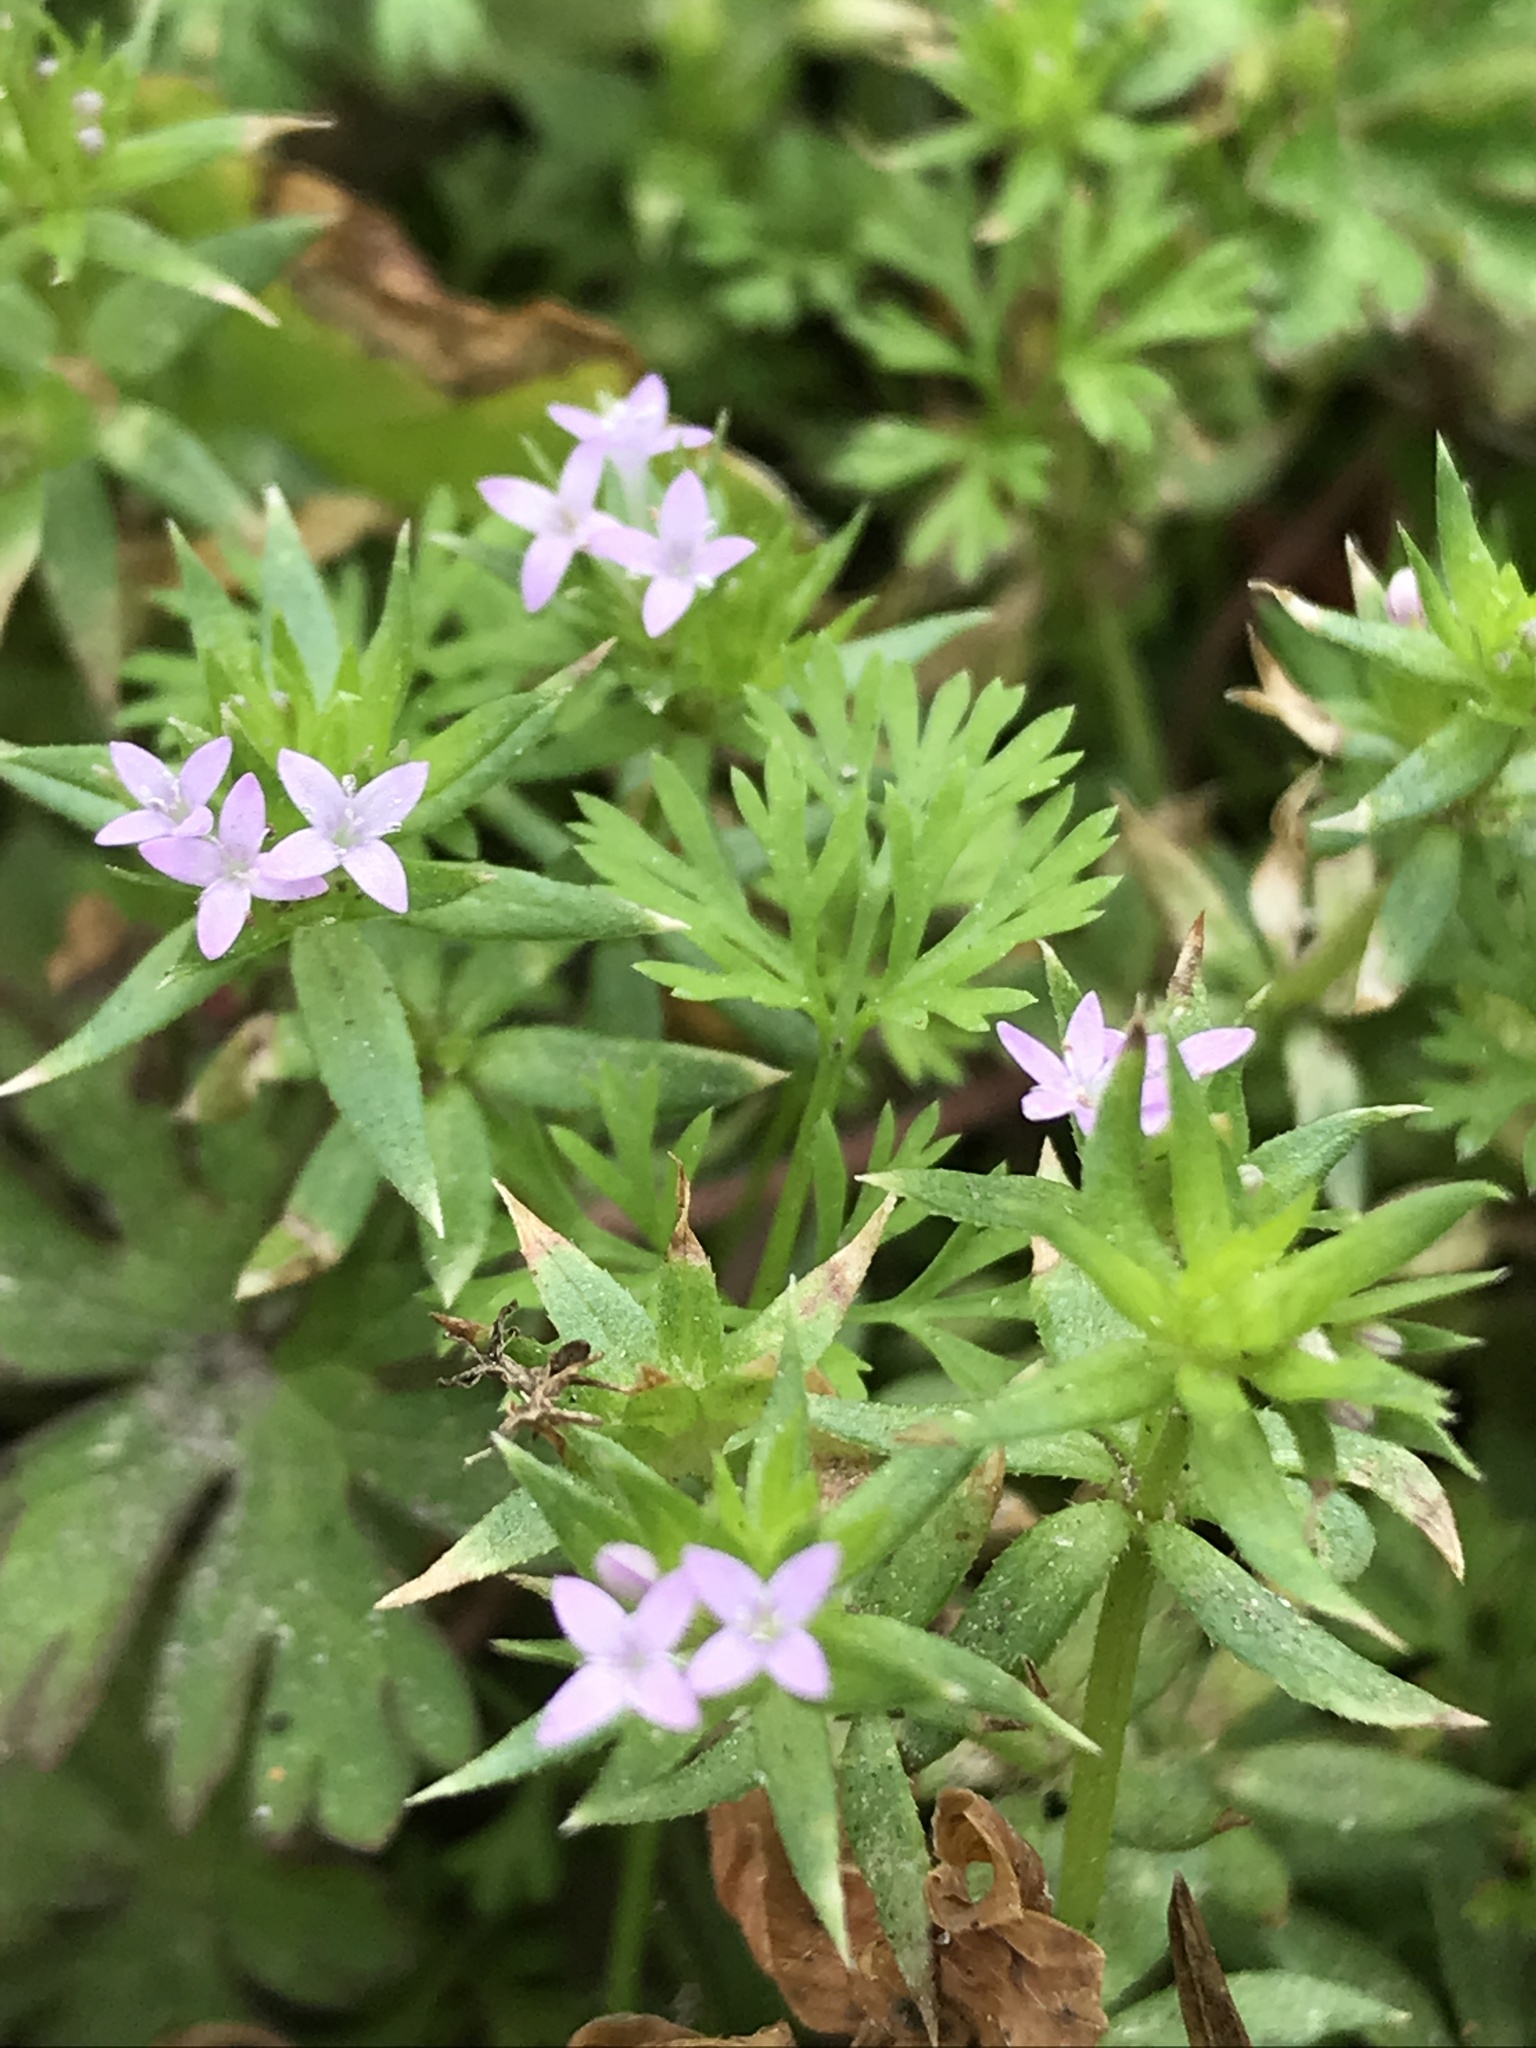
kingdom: Plantae
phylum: Tracheophyta
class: Magnoliopsida
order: Gentianales
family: Rubiaceae
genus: Sherardia
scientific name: Sherardia arvensis
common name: Field madder
